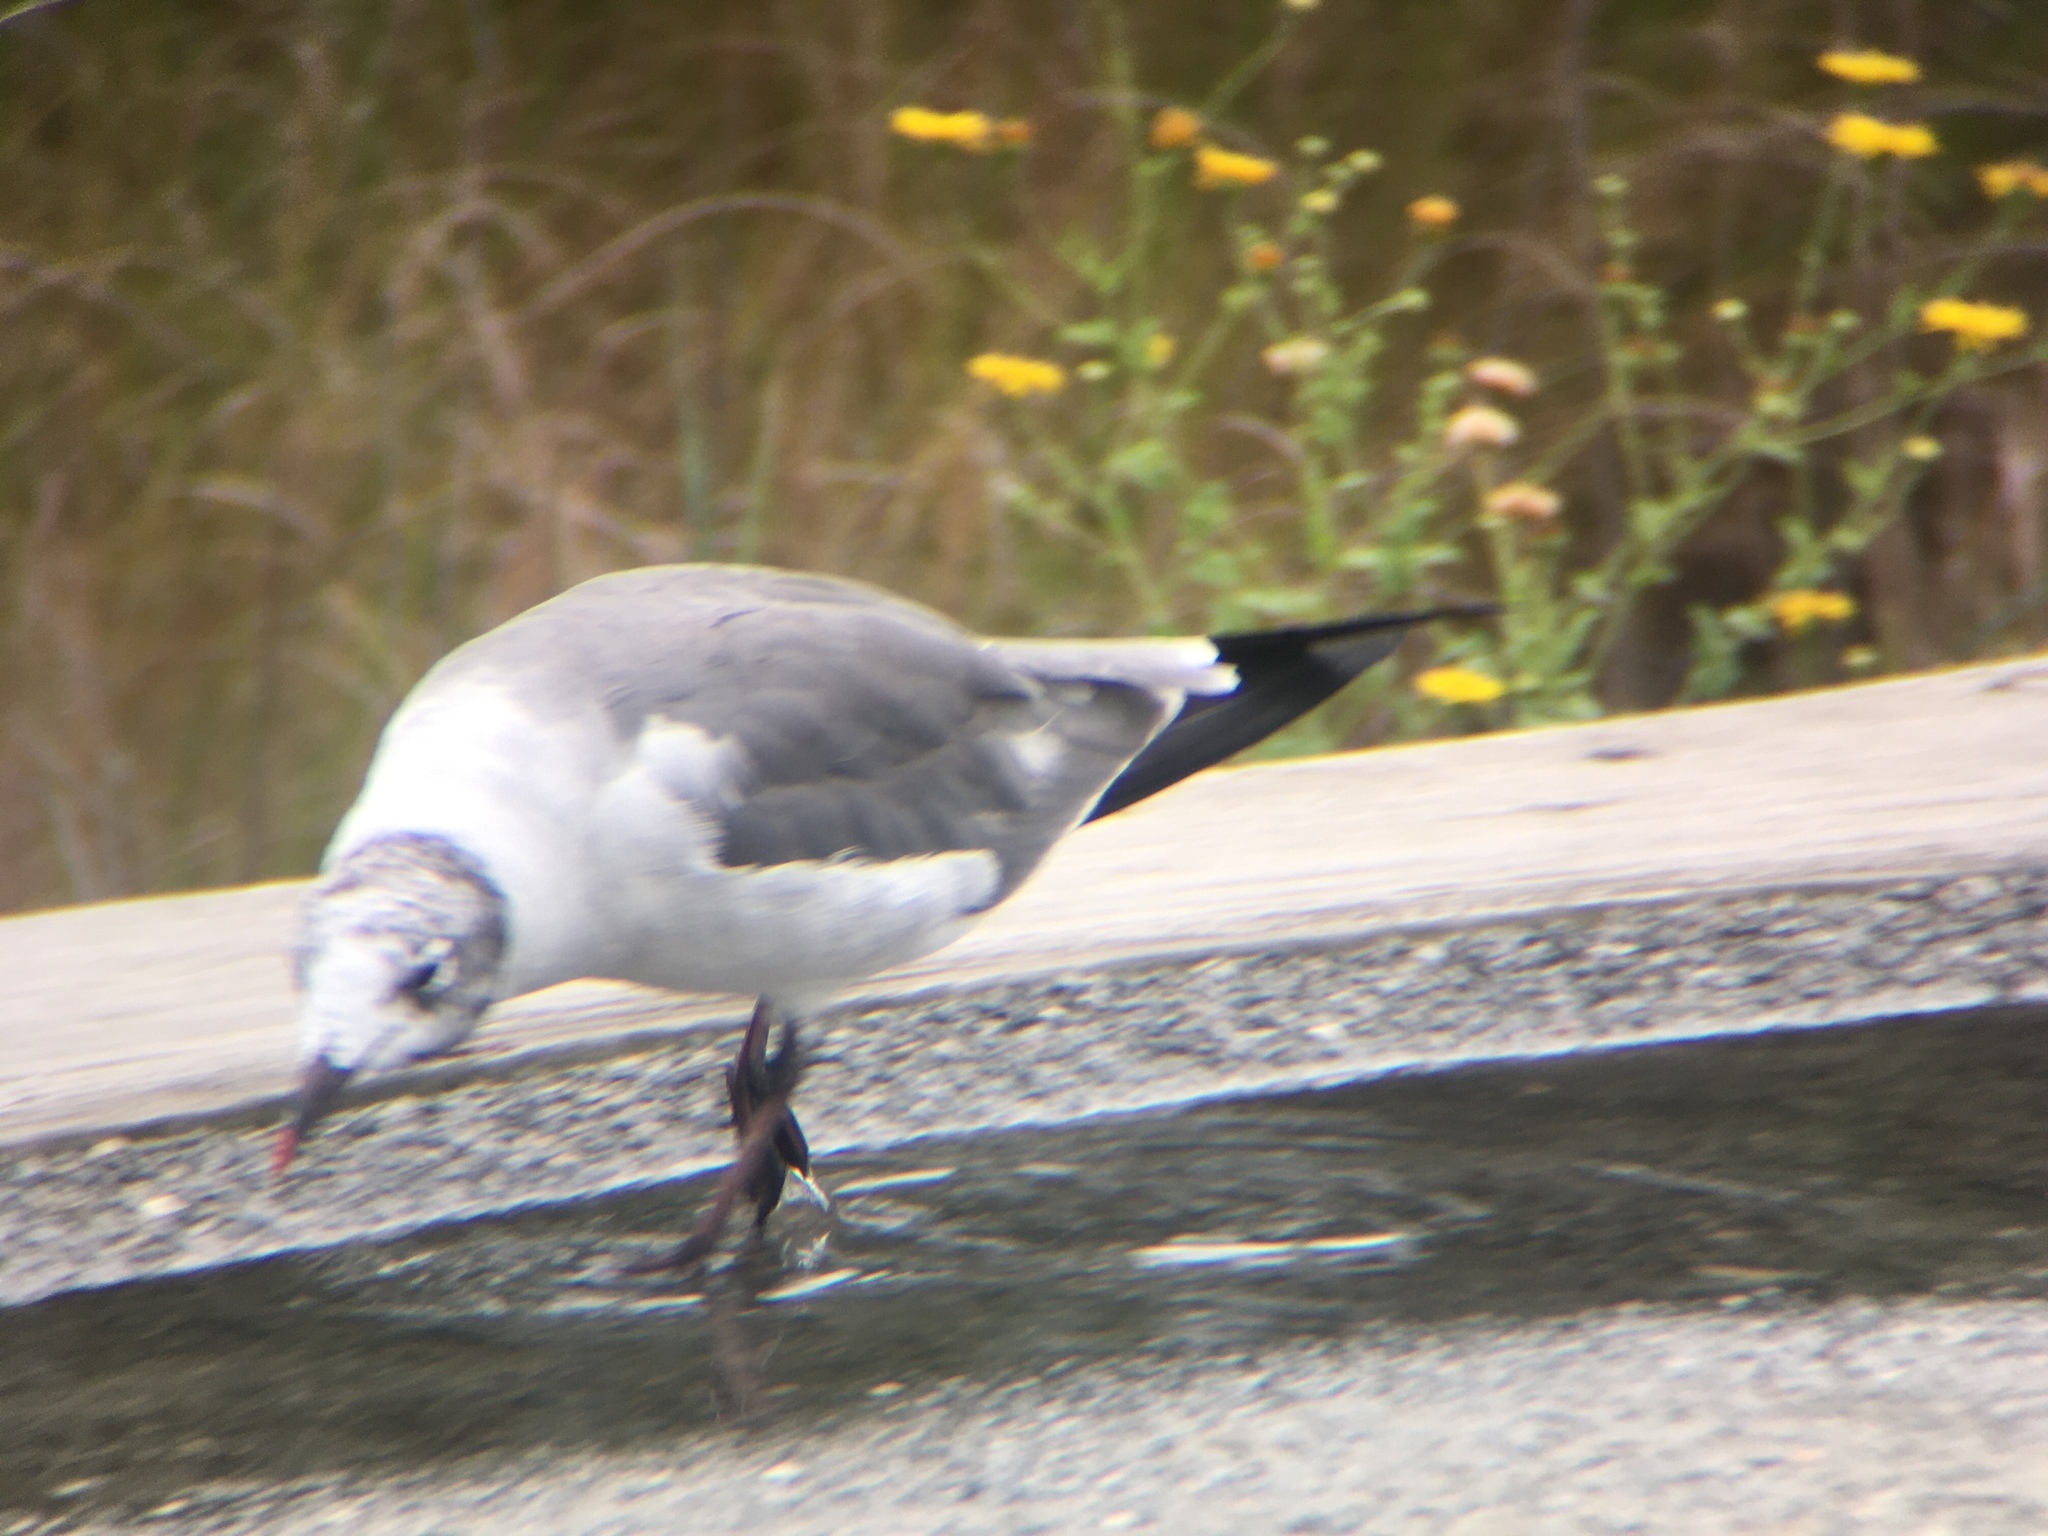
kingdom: Animalia
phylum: Chordata
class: Aves
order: Charadriiformes
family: Laridae
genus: Leucophaeus
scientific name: Leucophaeus atricilla
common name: Laughing gull
